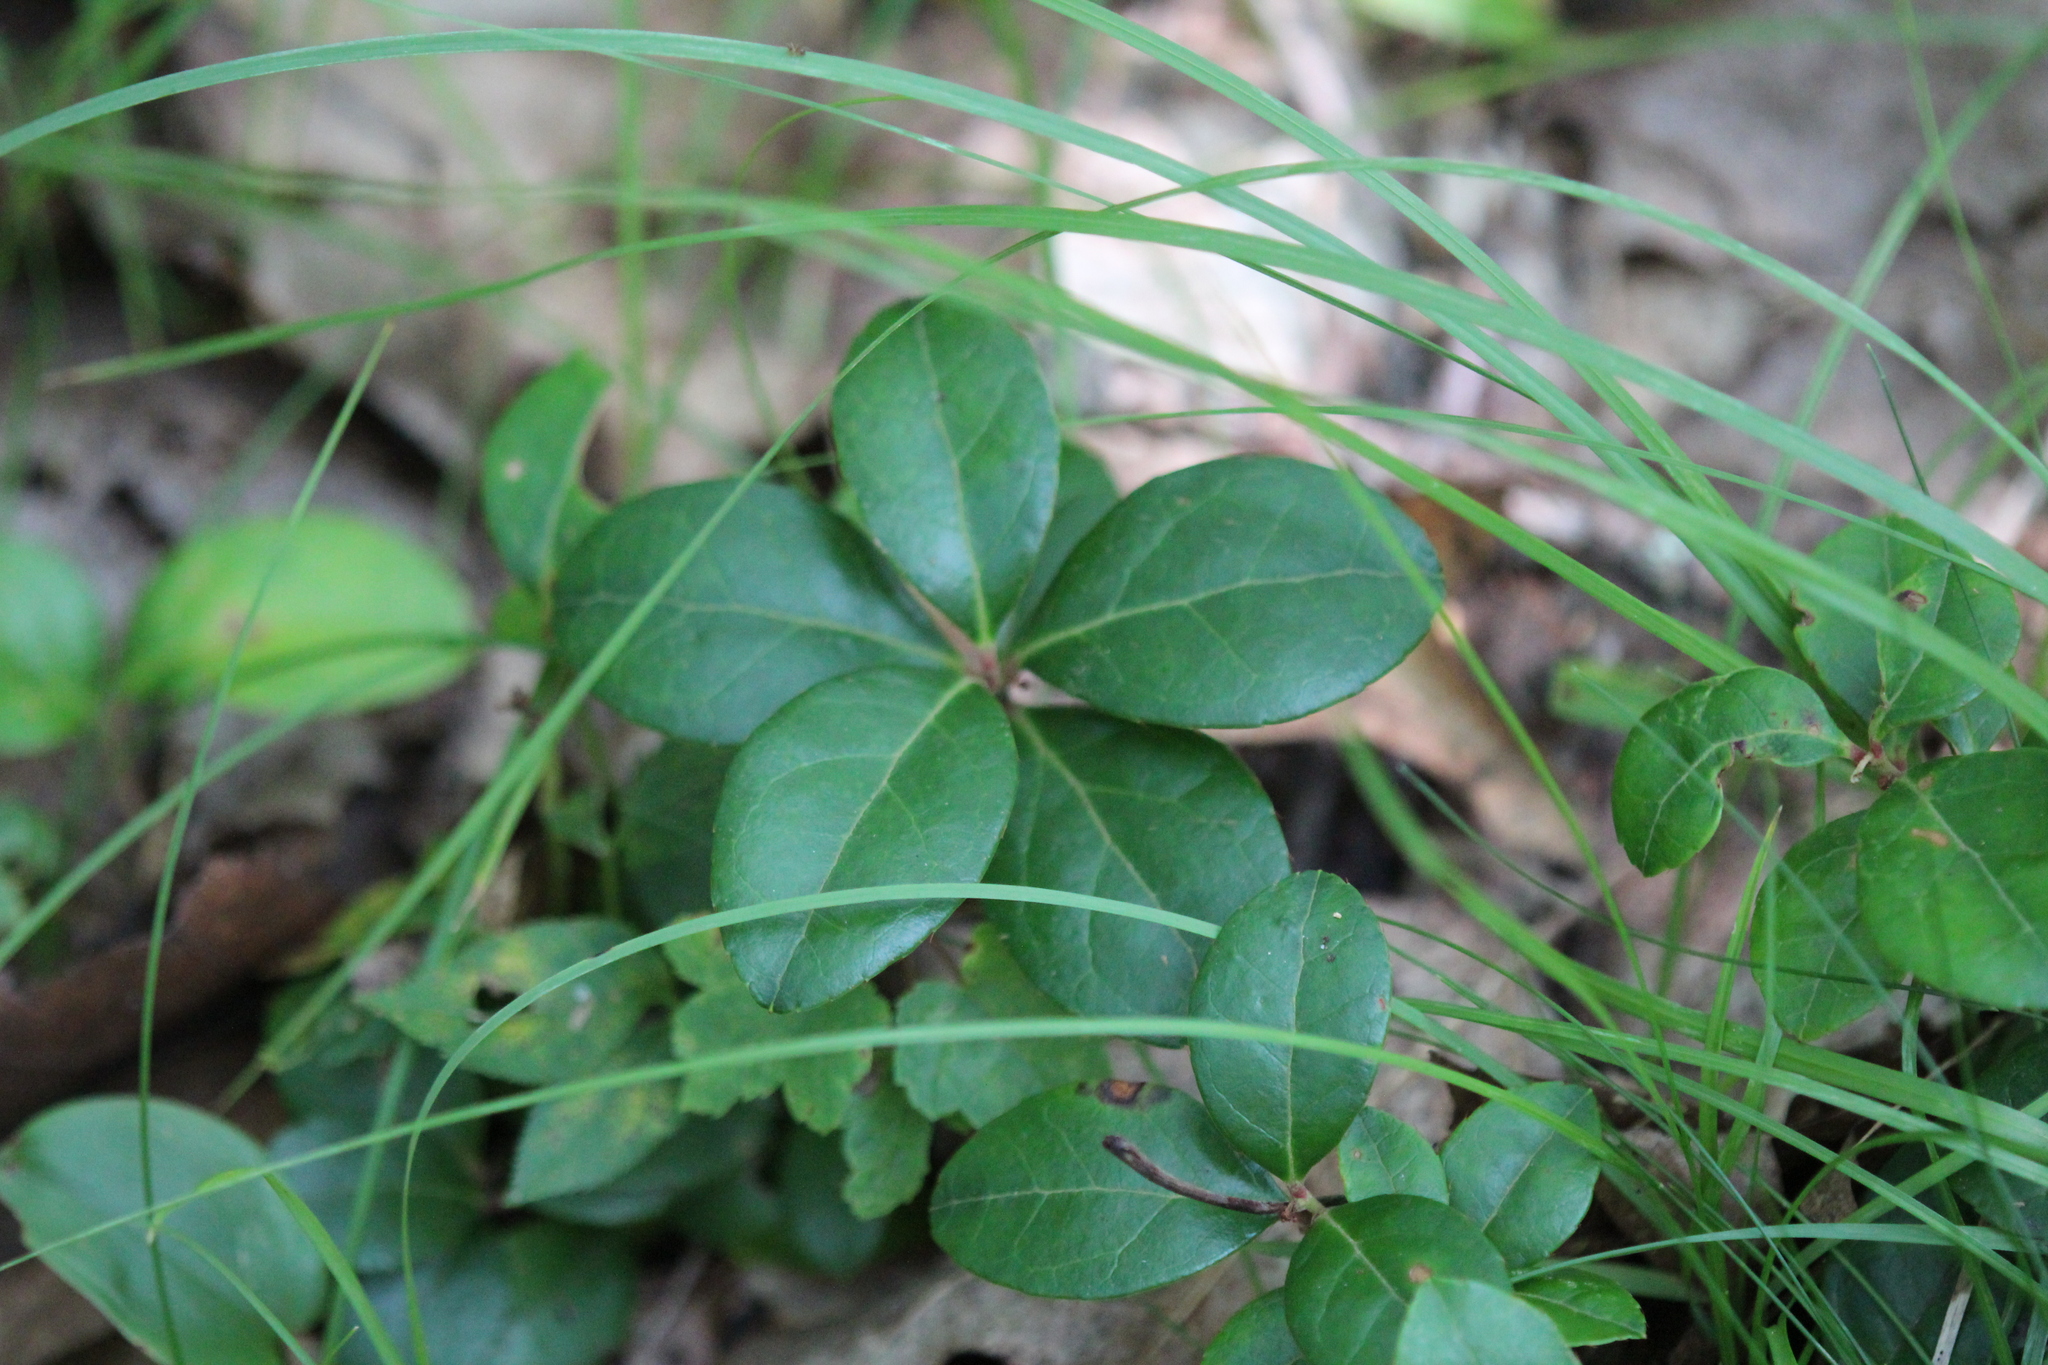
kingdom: Plantae
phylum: Tracheophyta
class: Magnoliopsida
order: Ericales
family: Ericaceae
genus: Gaultheria
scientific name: Gaultheria procumbens
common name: Checkerberry
